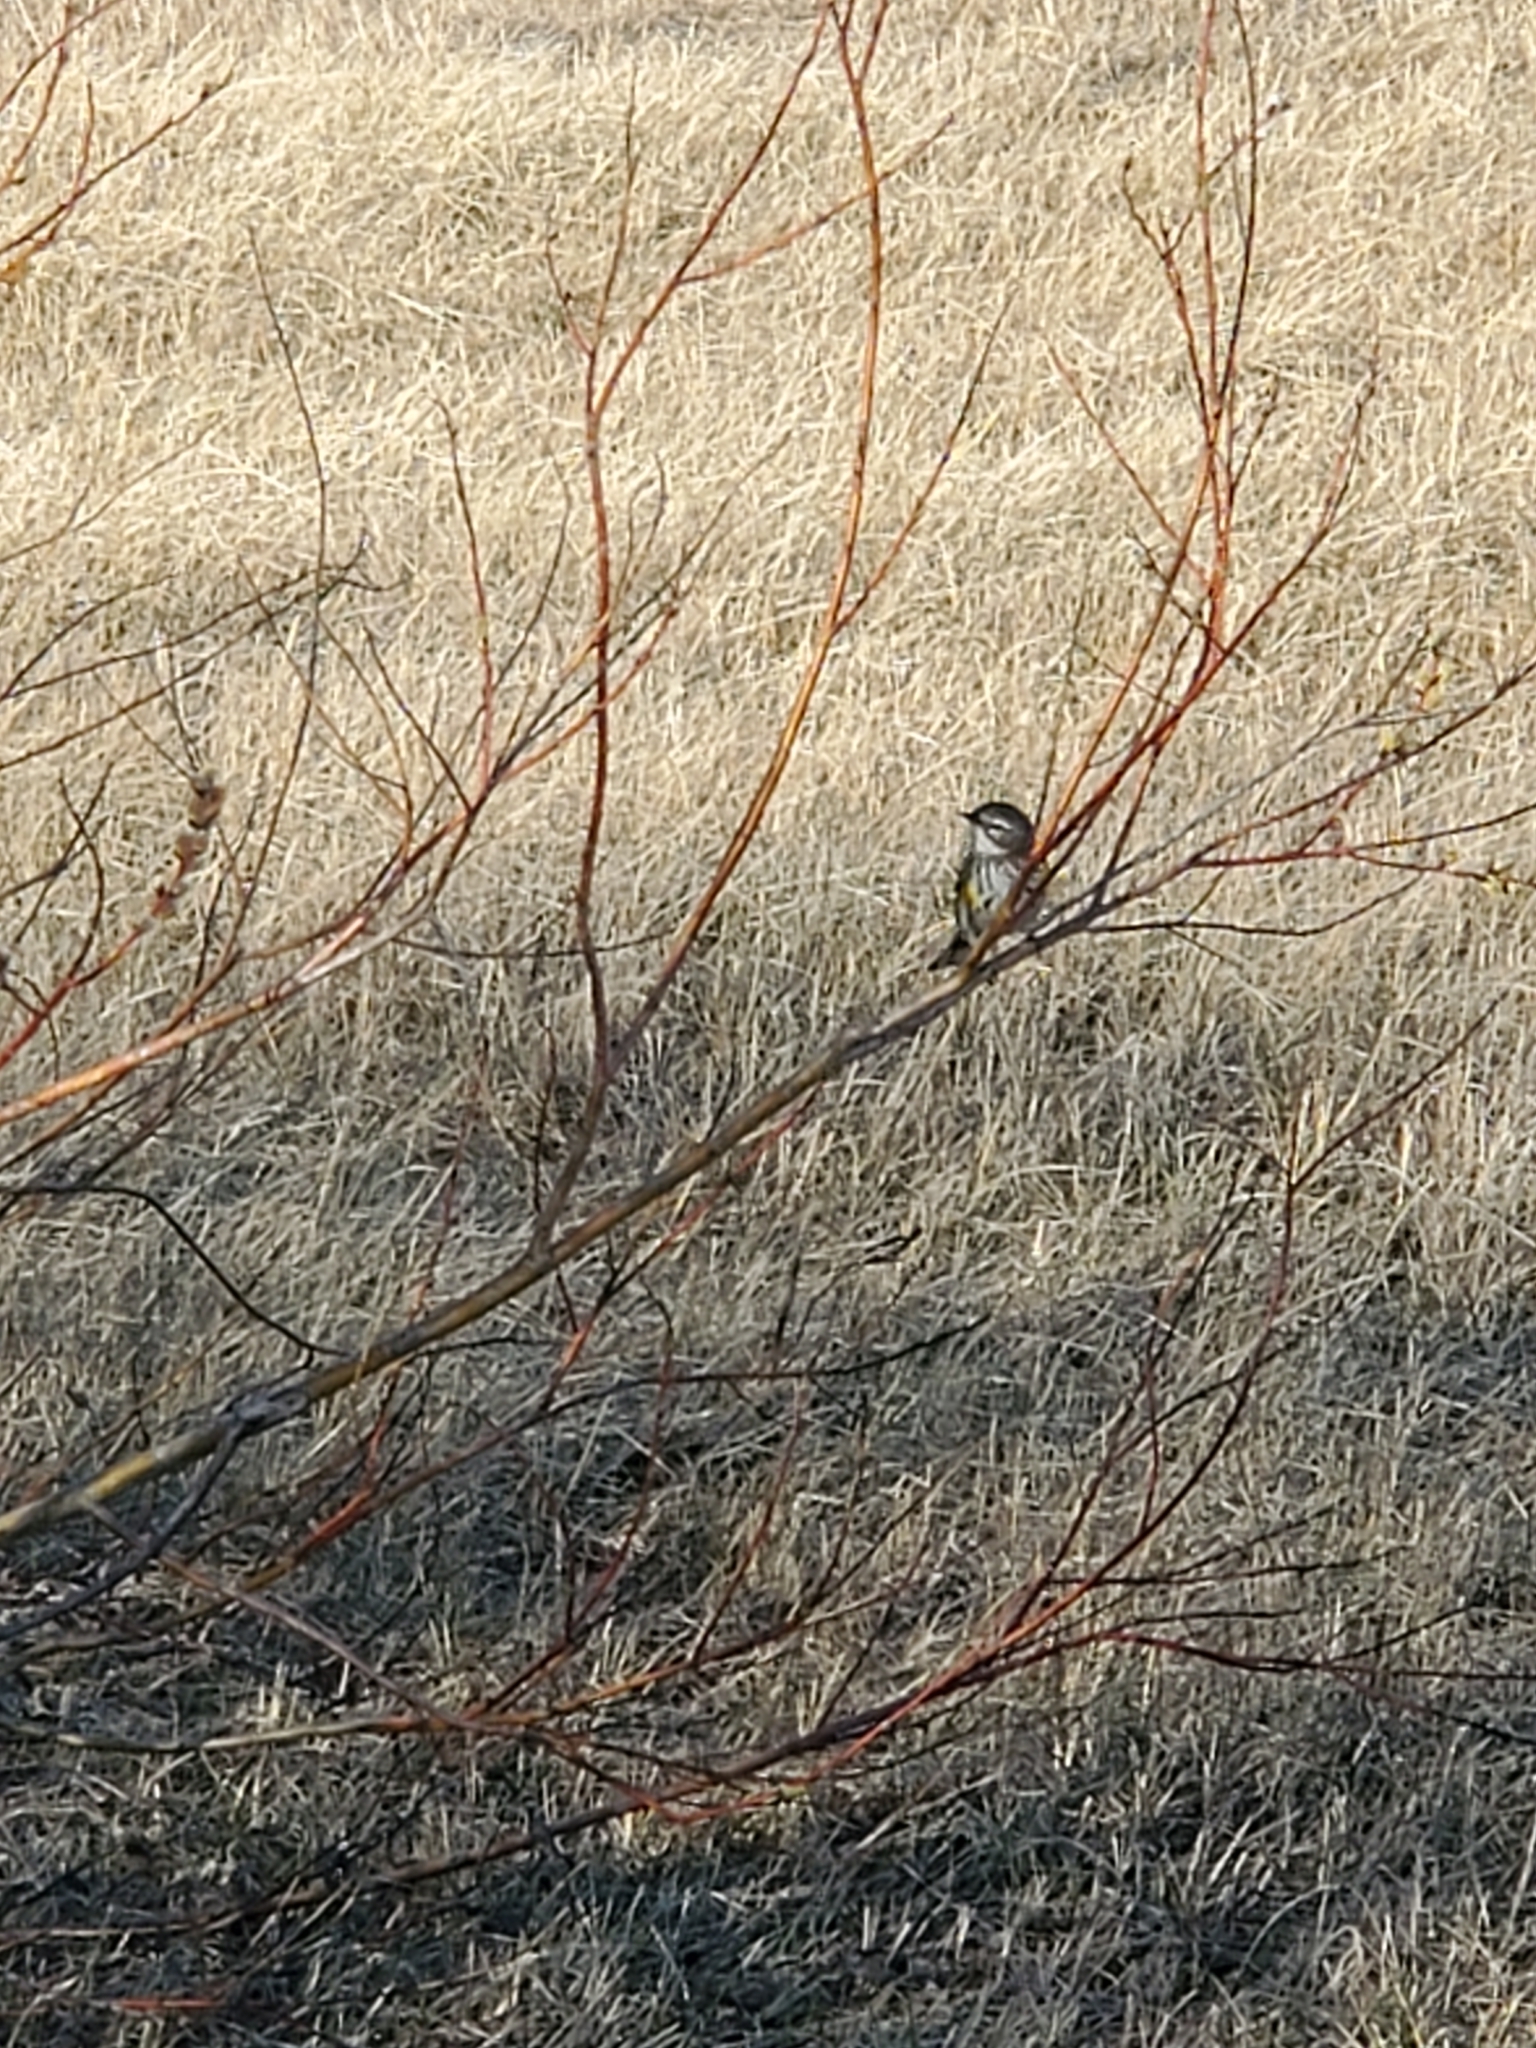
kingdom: Animalia
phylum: Chordata
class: Aves
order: Passeriformes
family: Parulidae
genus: Setophaga
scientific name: Setophaga coronata
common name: Myrtle warbler
